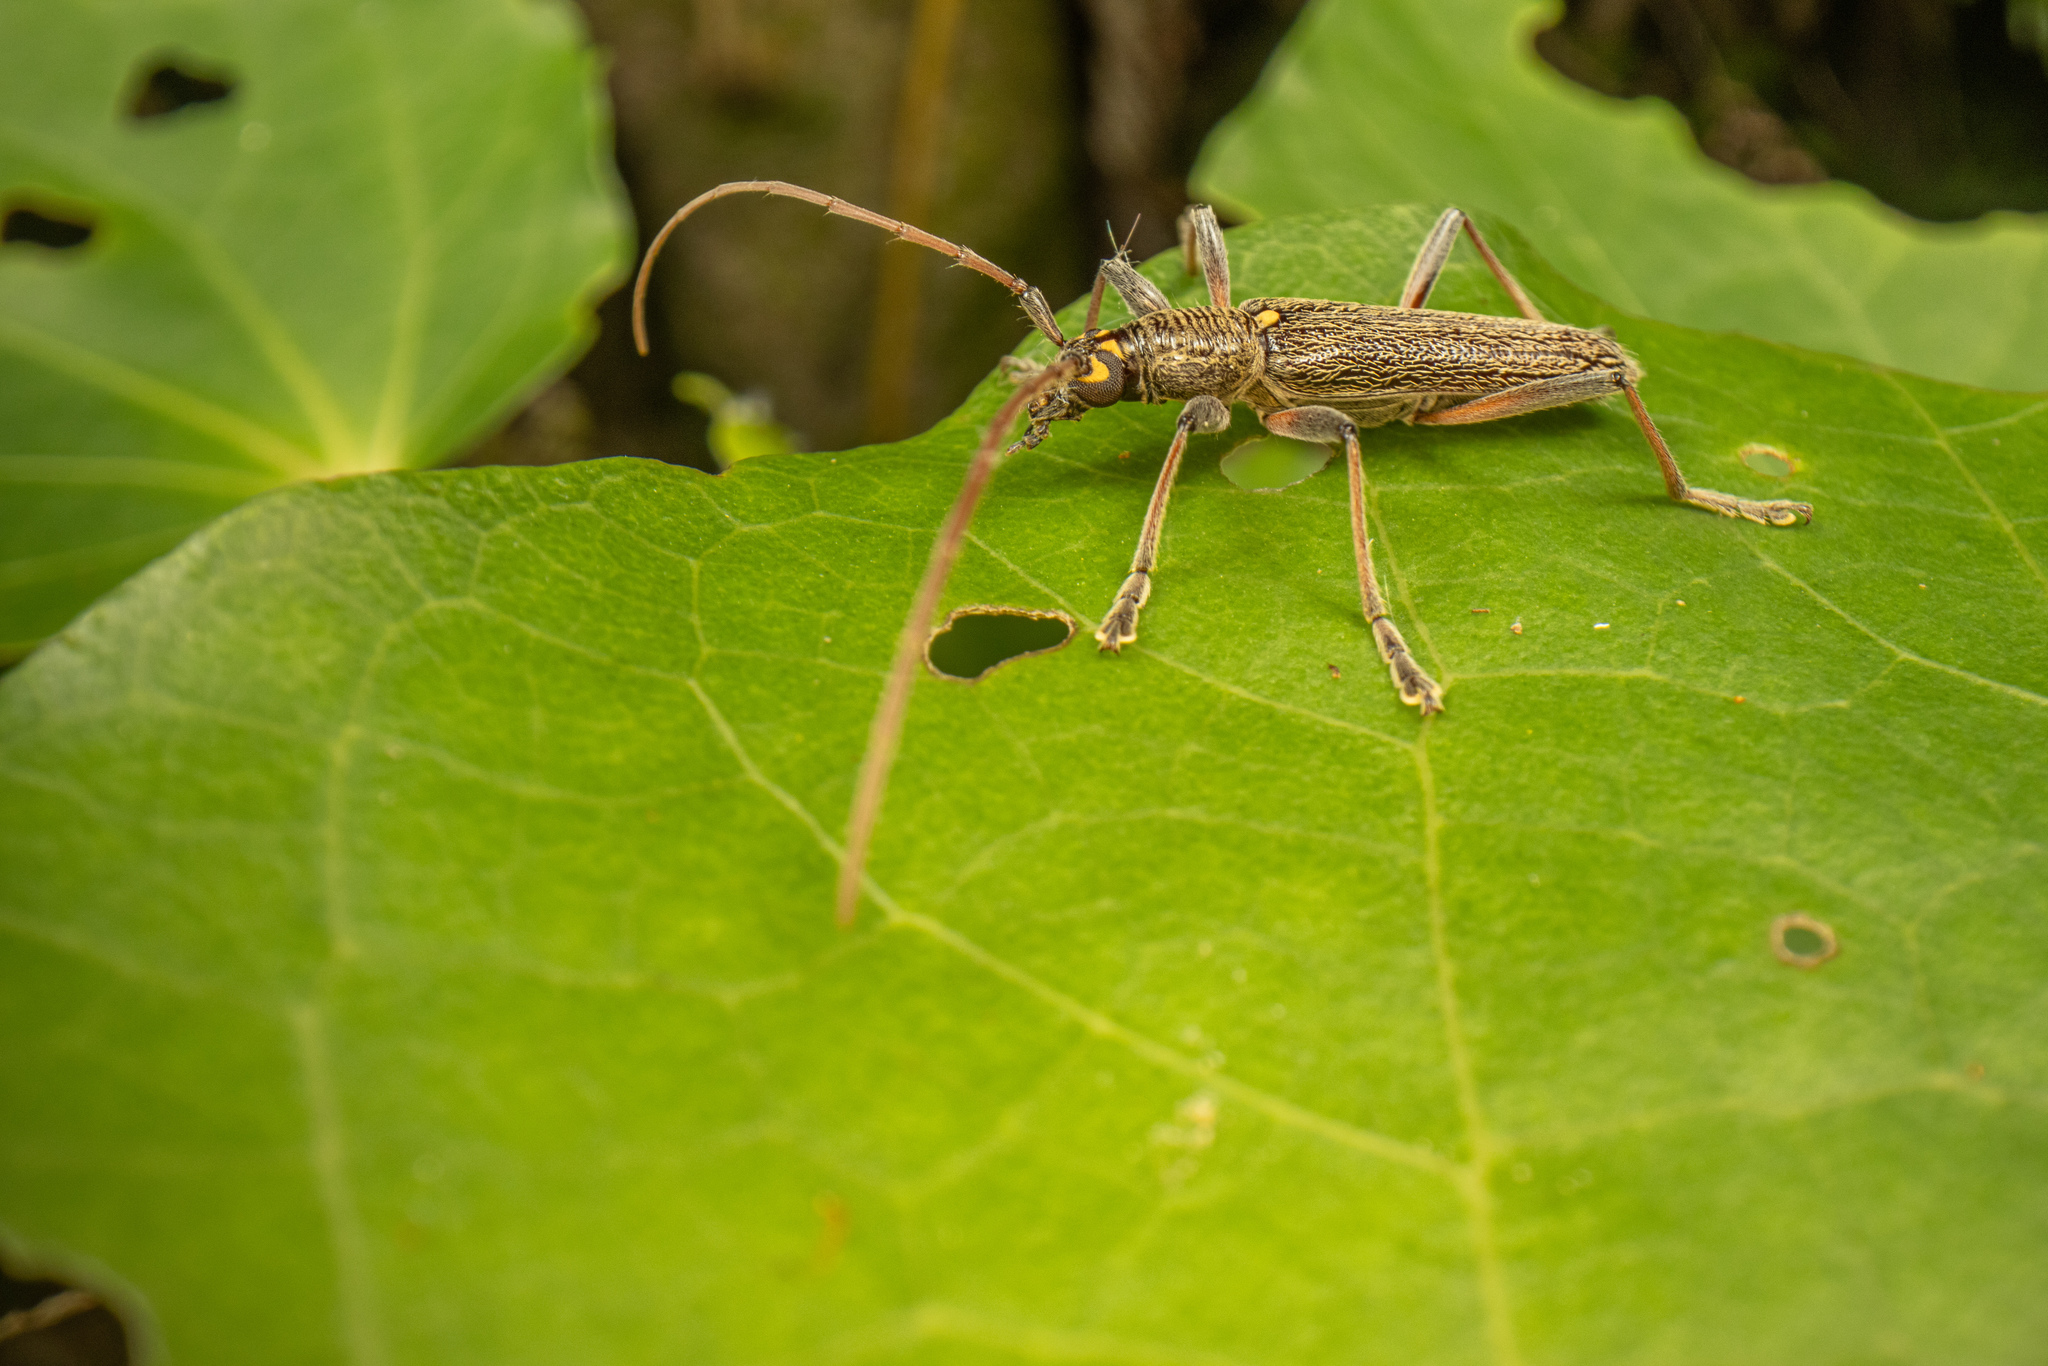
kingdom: Animalia
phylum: Arthropoda
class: Insecta
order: Coleoptera
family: Cerambycidae
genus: Oemona
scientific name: Oemona hirta
